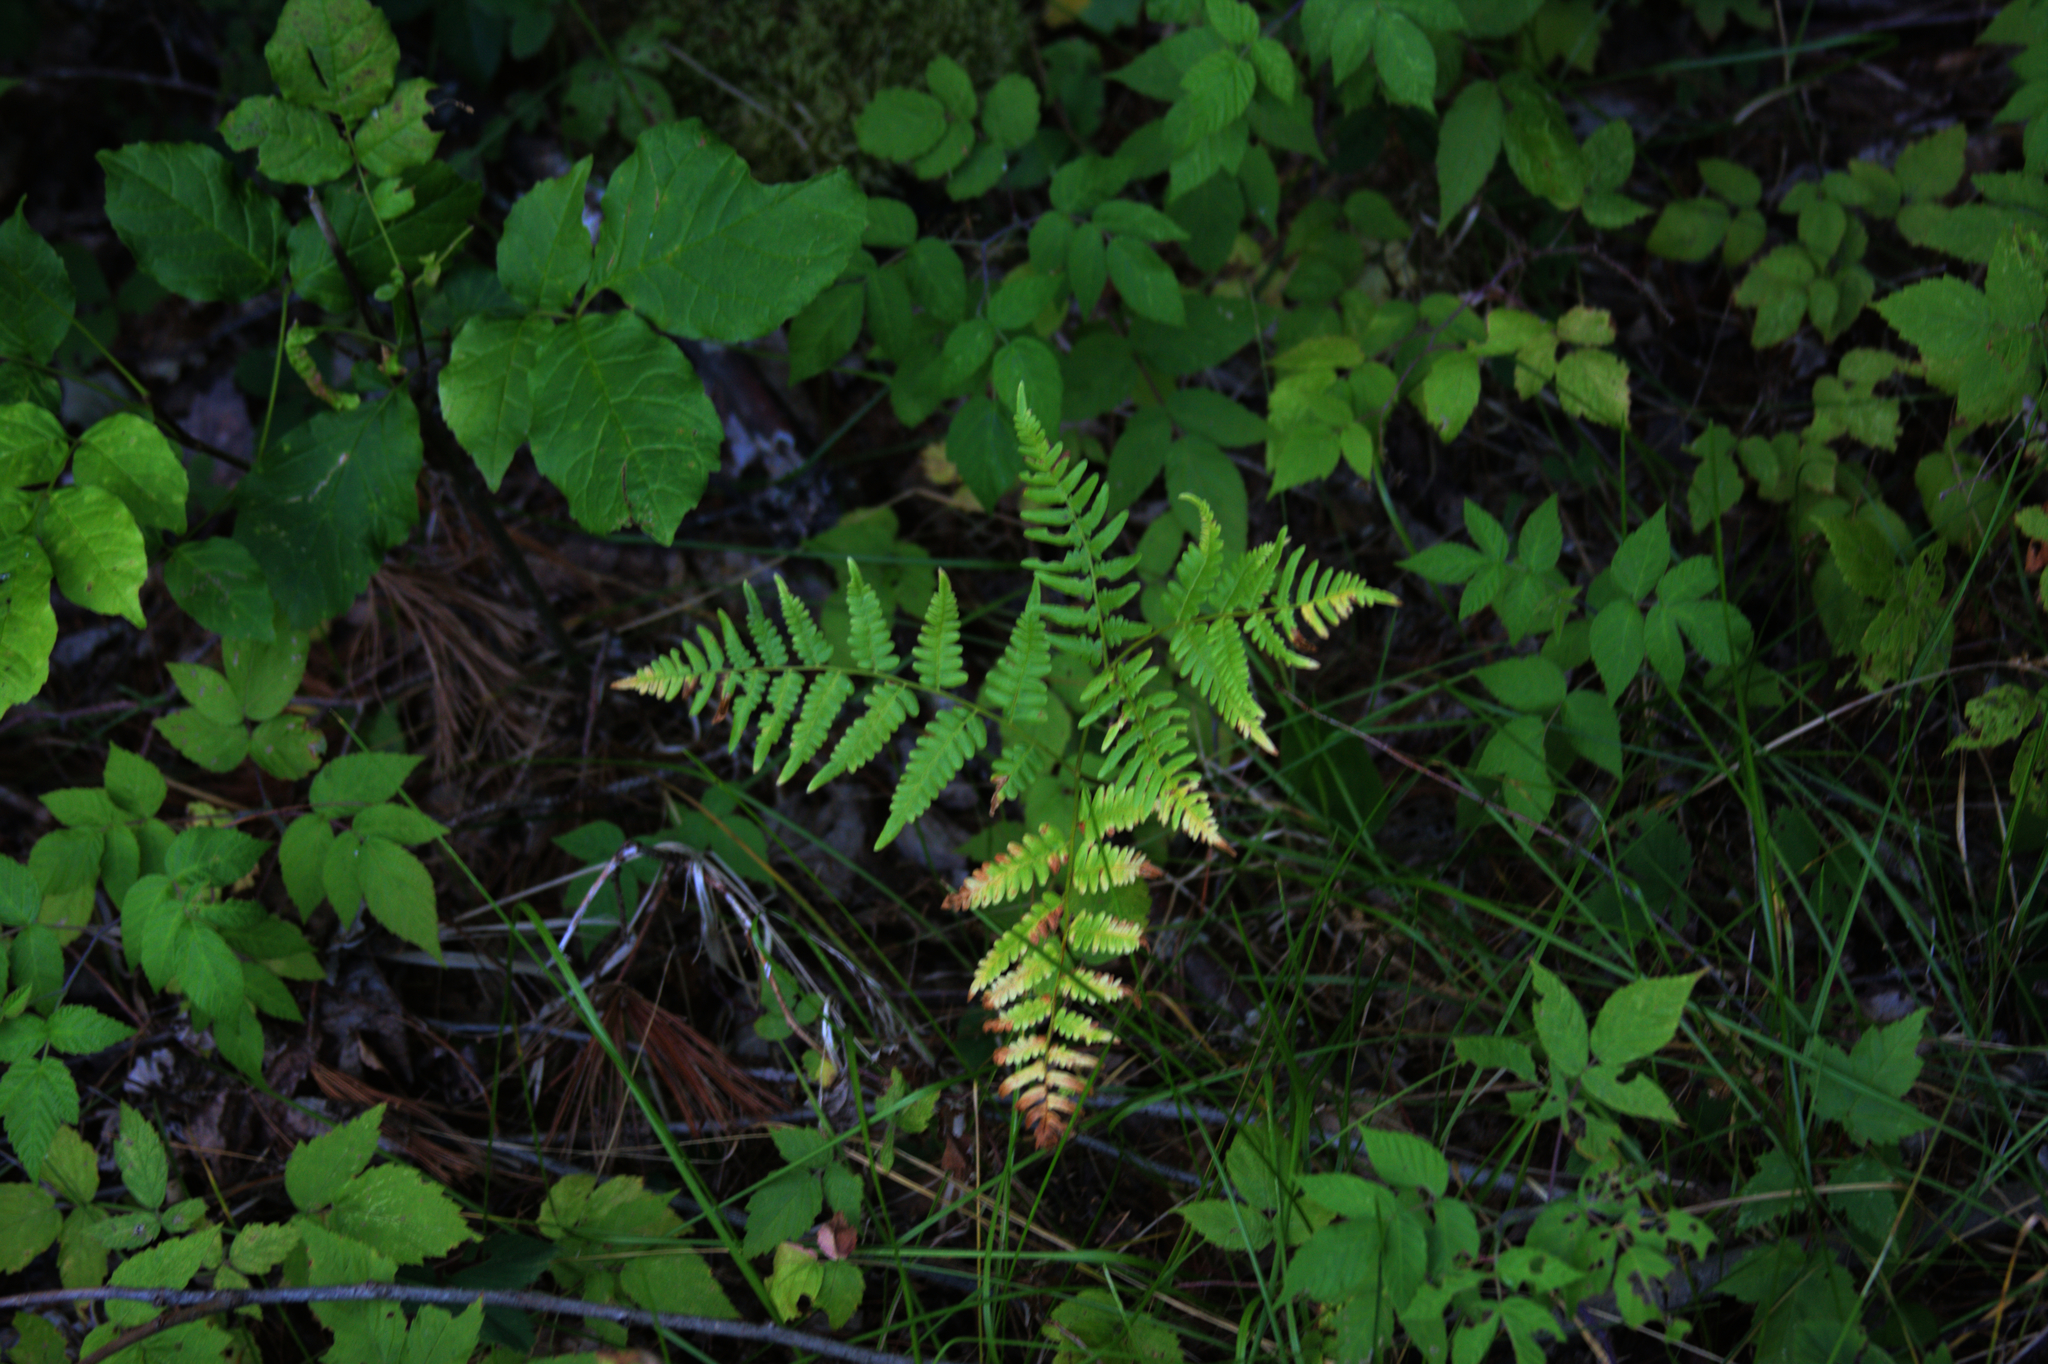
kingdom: Plantae
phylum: Tracheophyta
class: Polypodiopsida
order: Polypodiales
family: Dennstaedtiaceae
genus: Pteridium
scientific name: Pteridium aquilinum
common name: Bracken
